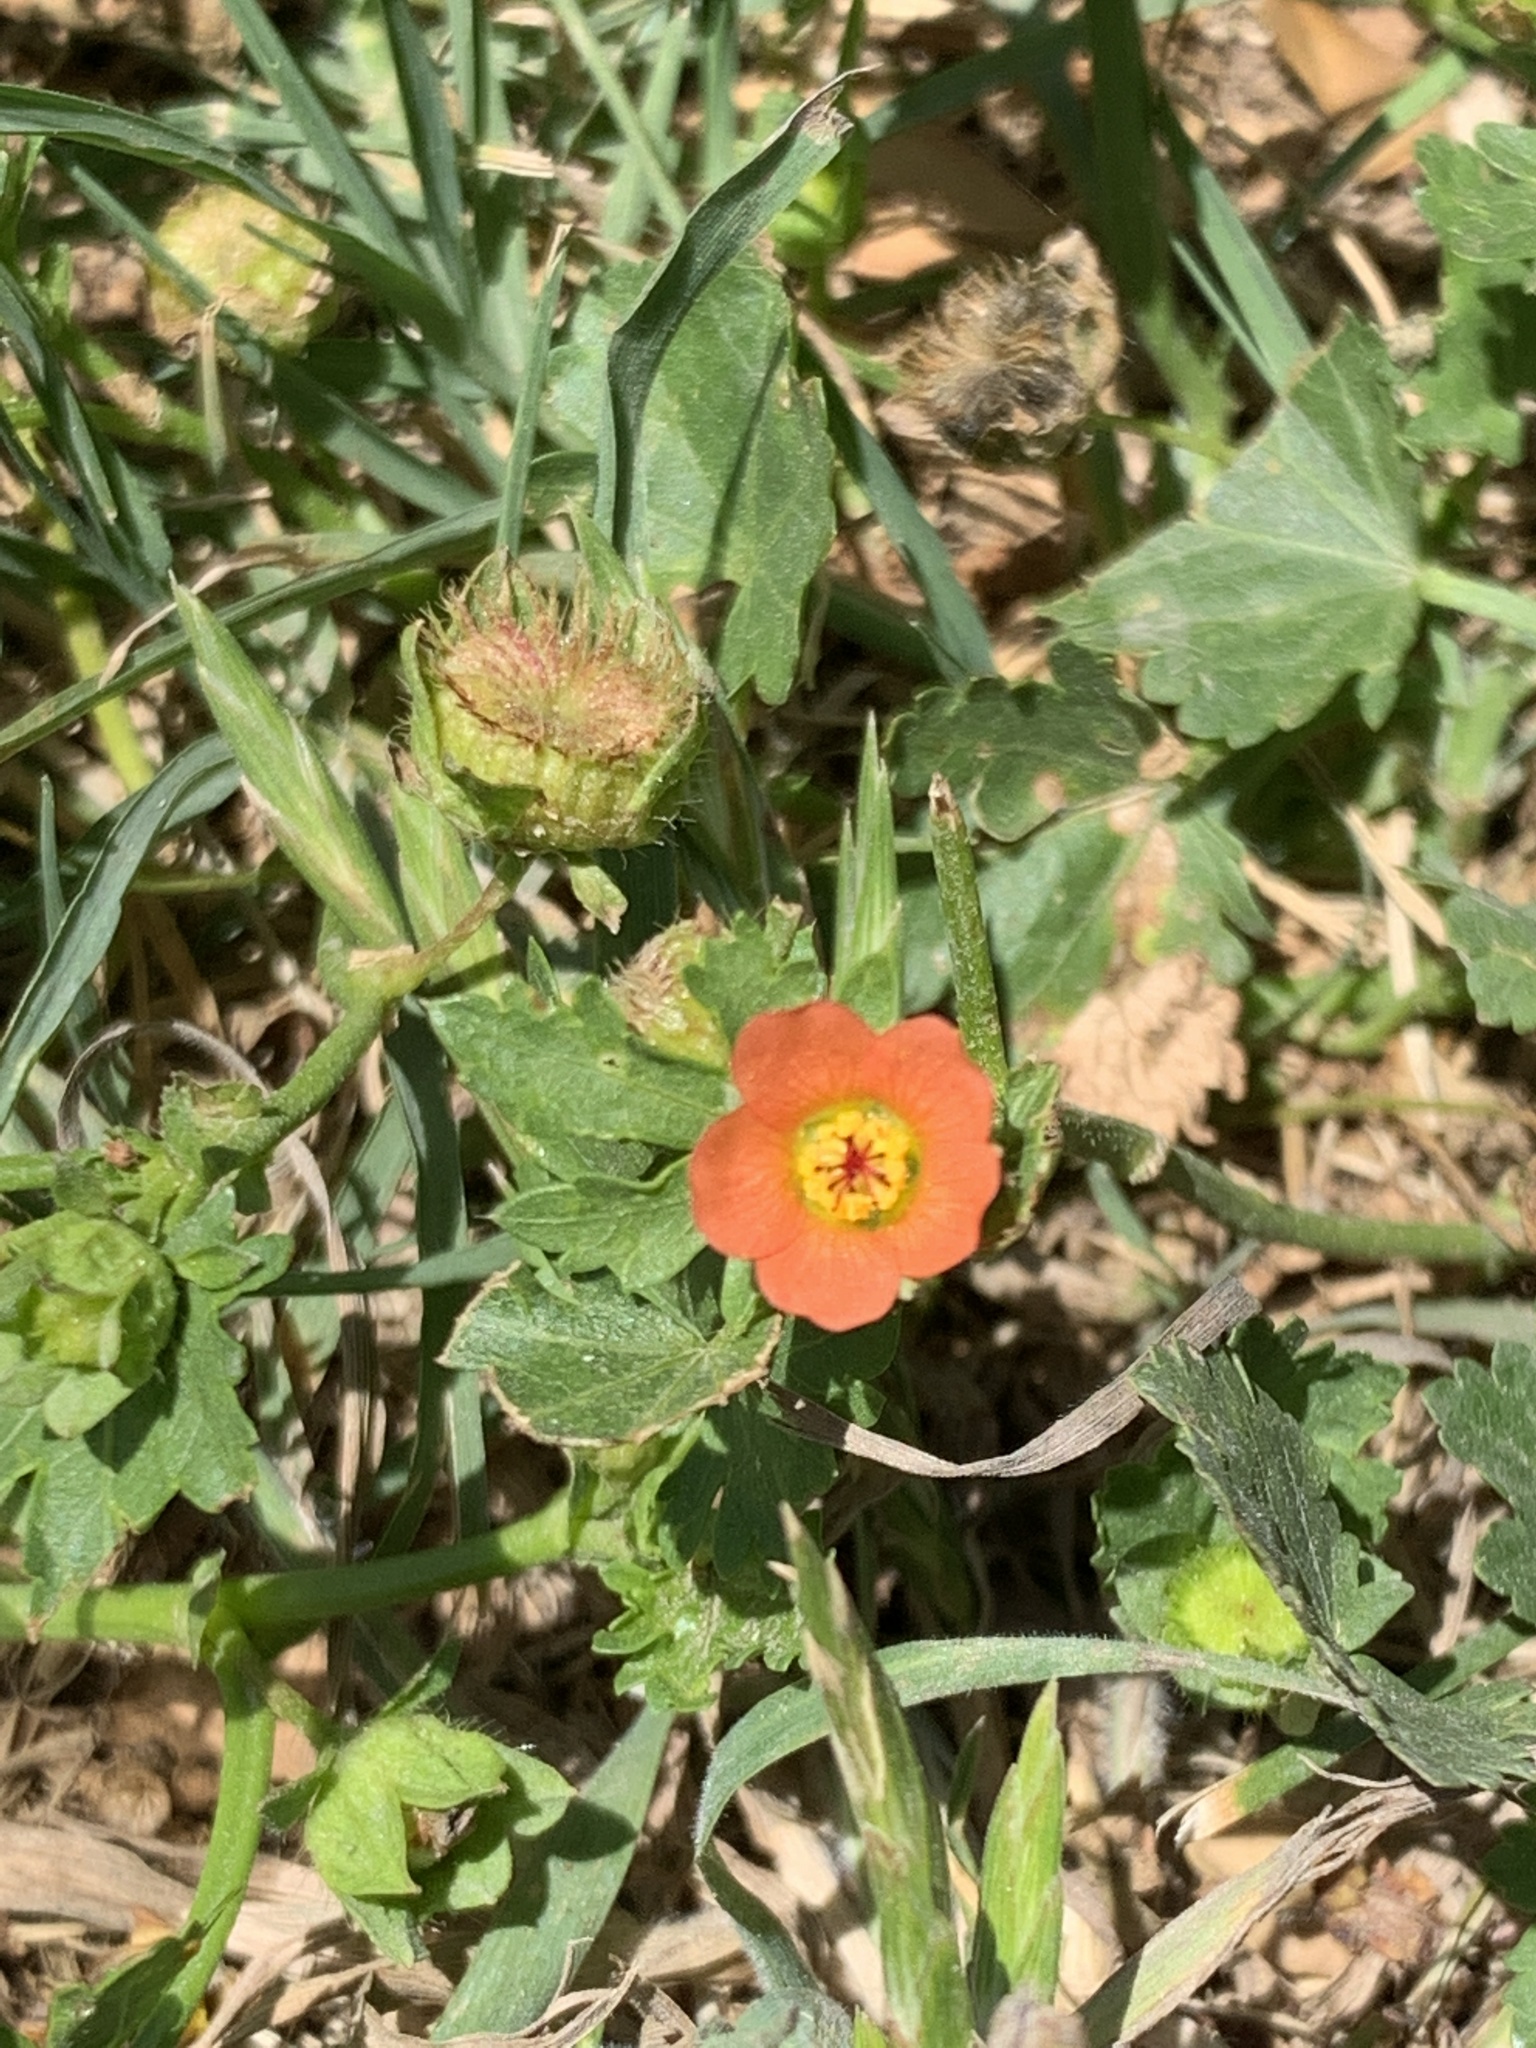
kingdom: Plantae
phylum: Tracheophyta
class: Magnoliopsida
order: Malvales
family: Malvaceae
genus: Modiola
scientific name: Modiola caroliniana
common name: Carolina bristlemallow
